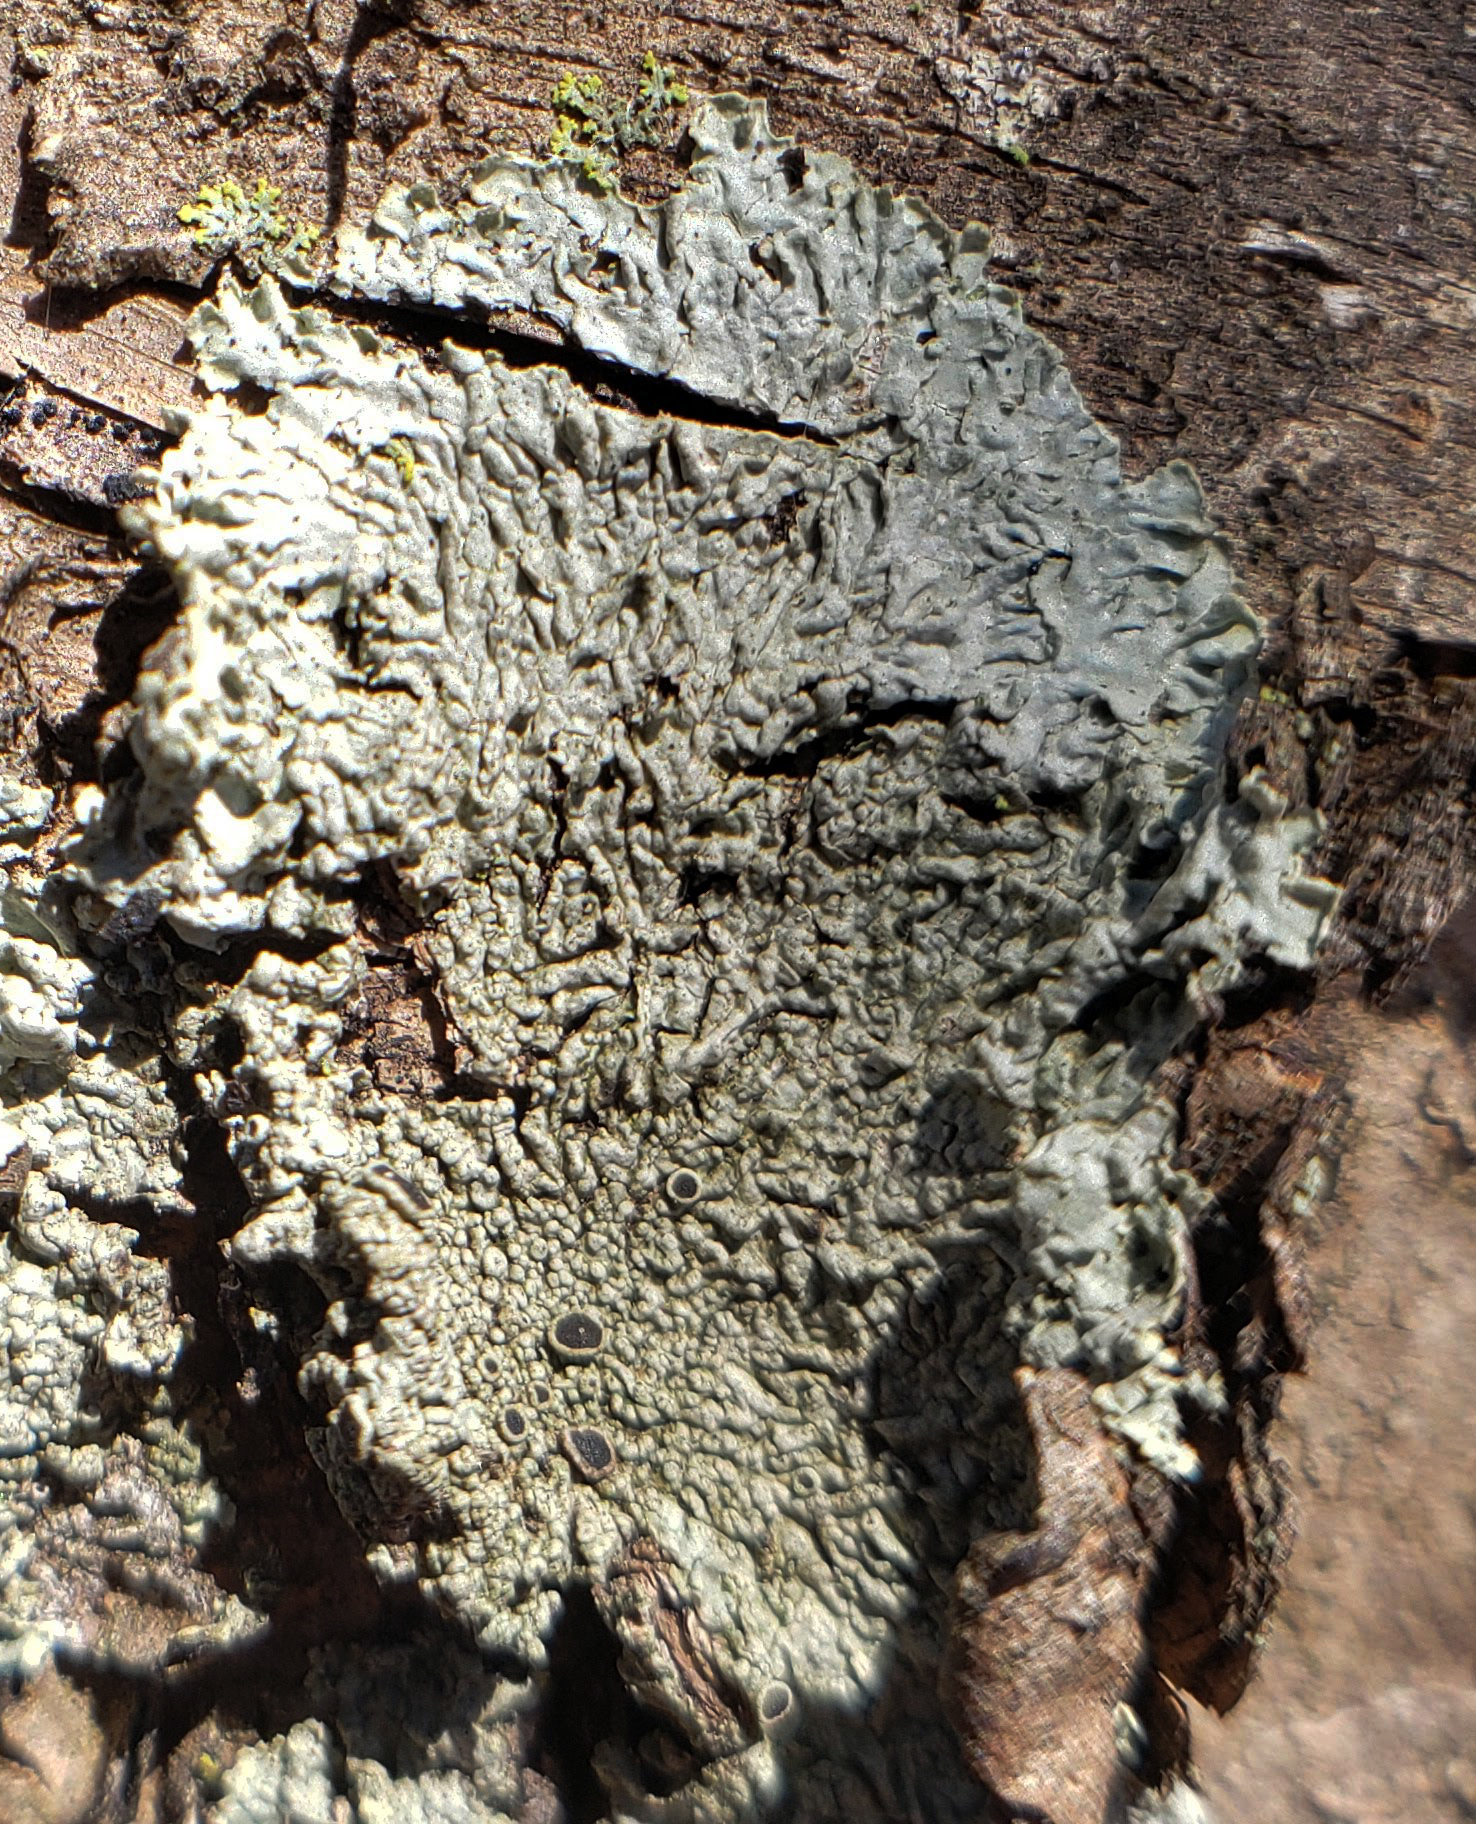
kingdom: Fungi
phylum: Ascomycota
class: Lecanoromycetes
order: Caliciales
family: Physciaceae
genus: Hyperphyscia
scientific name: Hyperphyscia syncolla
